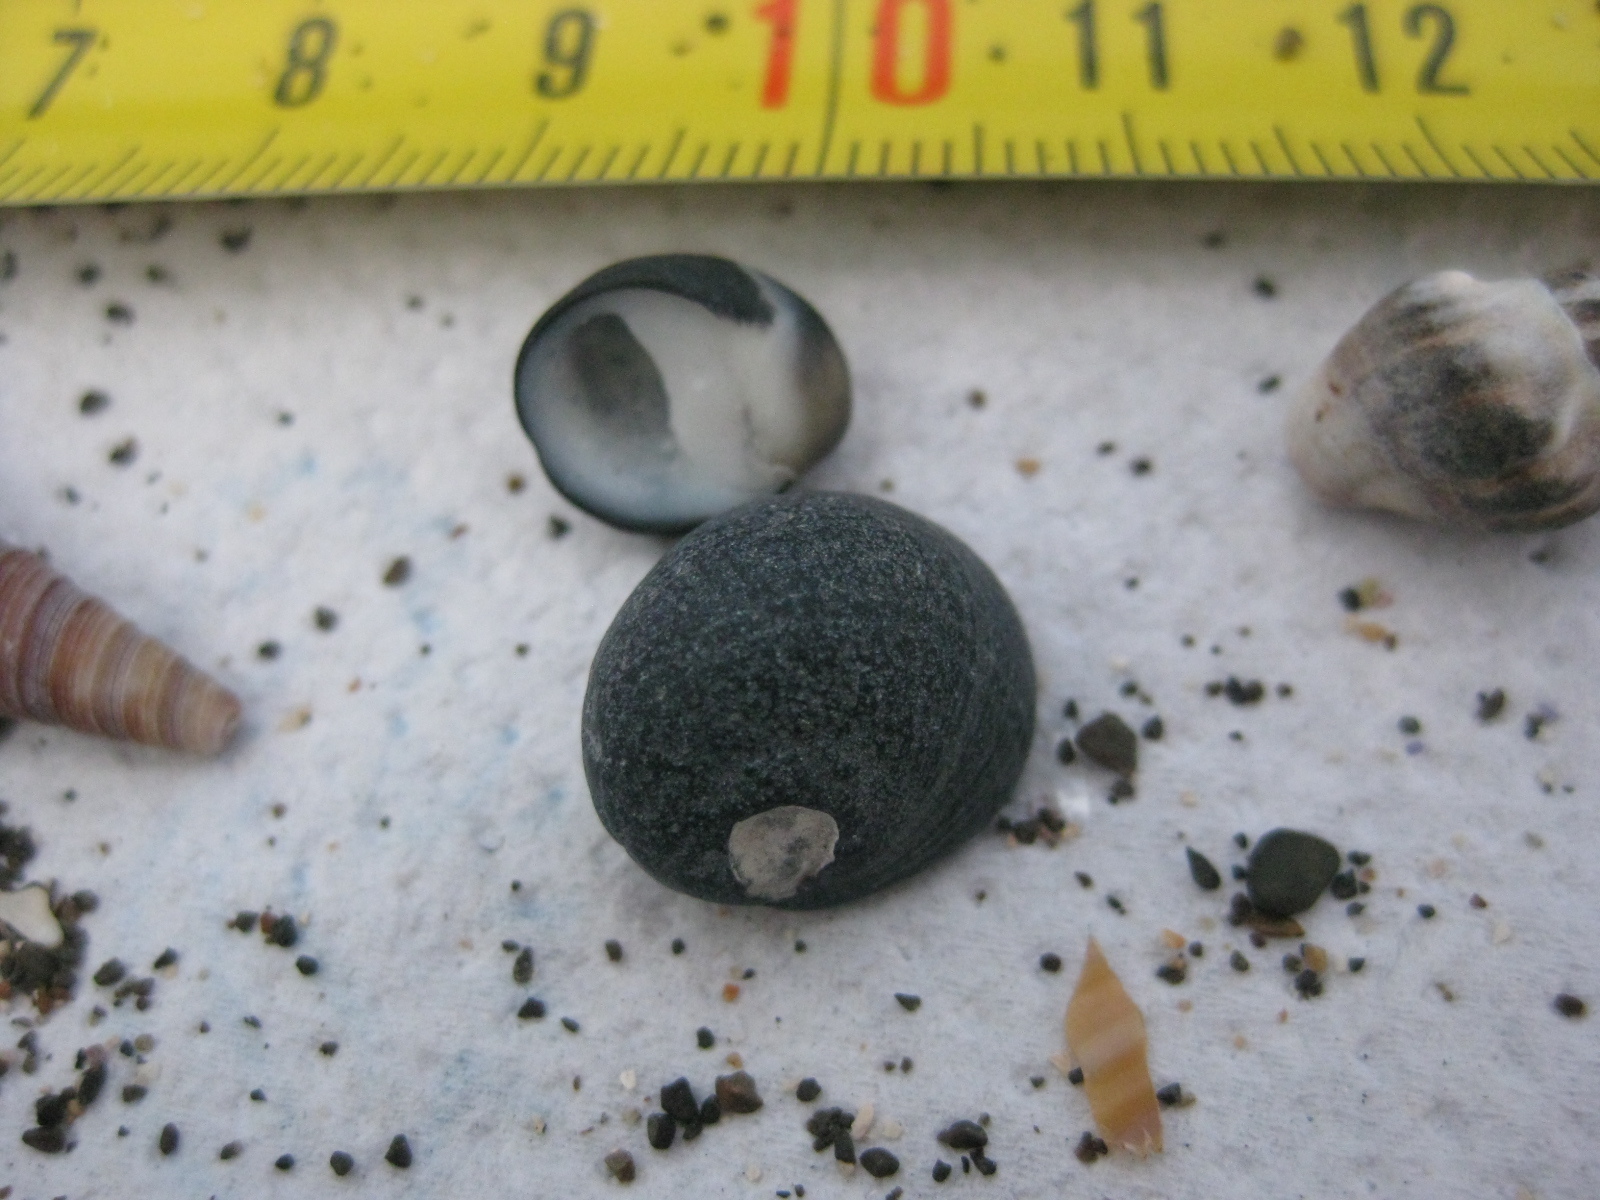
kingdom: Animalia
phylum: Mollusca
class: Gastropoda
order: Cycloneritida
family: Neritidae
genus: Nerita
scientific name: Nerita melanotragus
